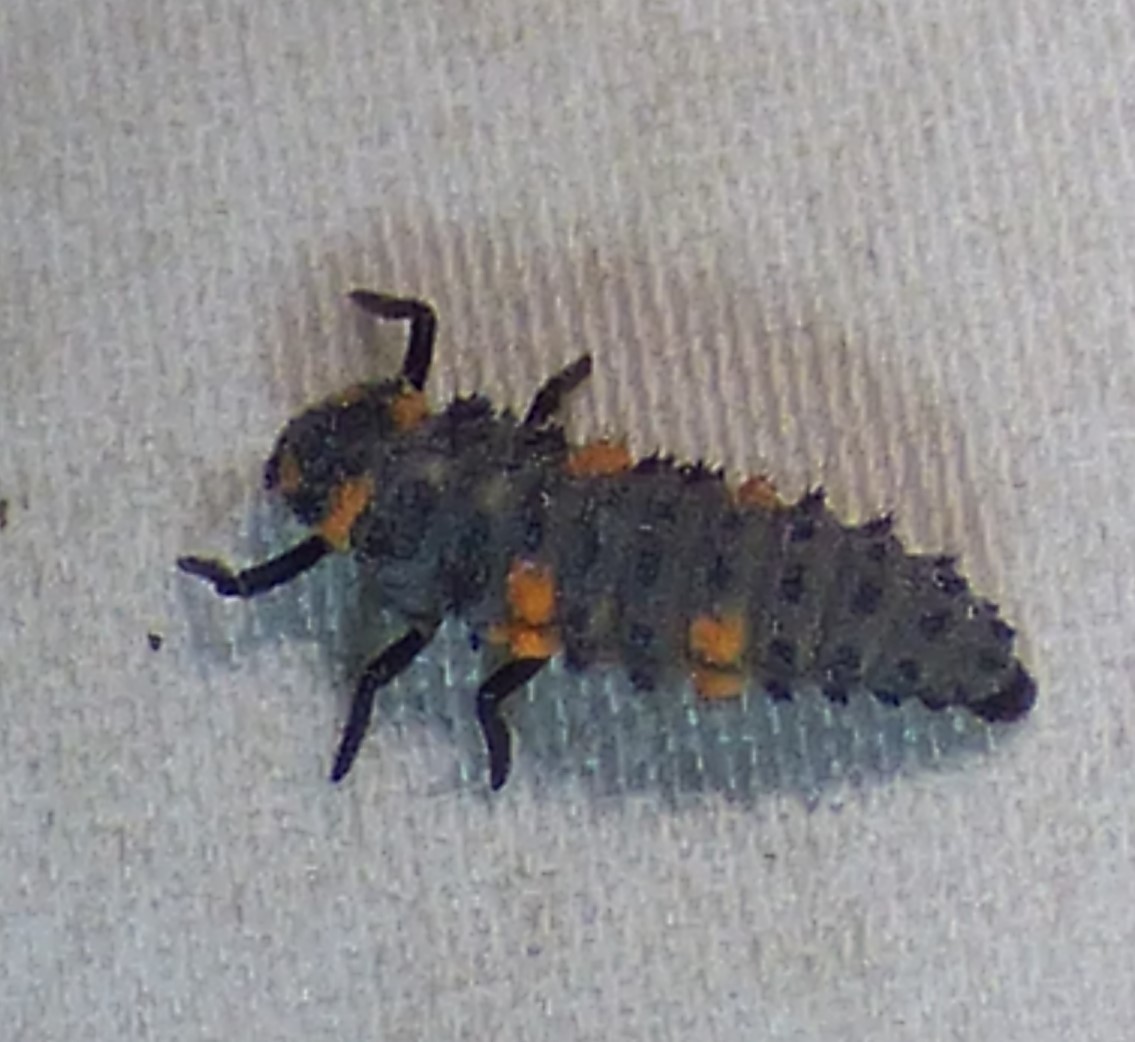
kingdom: Animalia
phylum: Arthropoda
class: Insecta
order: Coleoptera
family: Coccinellidae
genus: Coccinella
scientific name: Coccinella septempunctata
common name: Sevenspotted lady beetle
